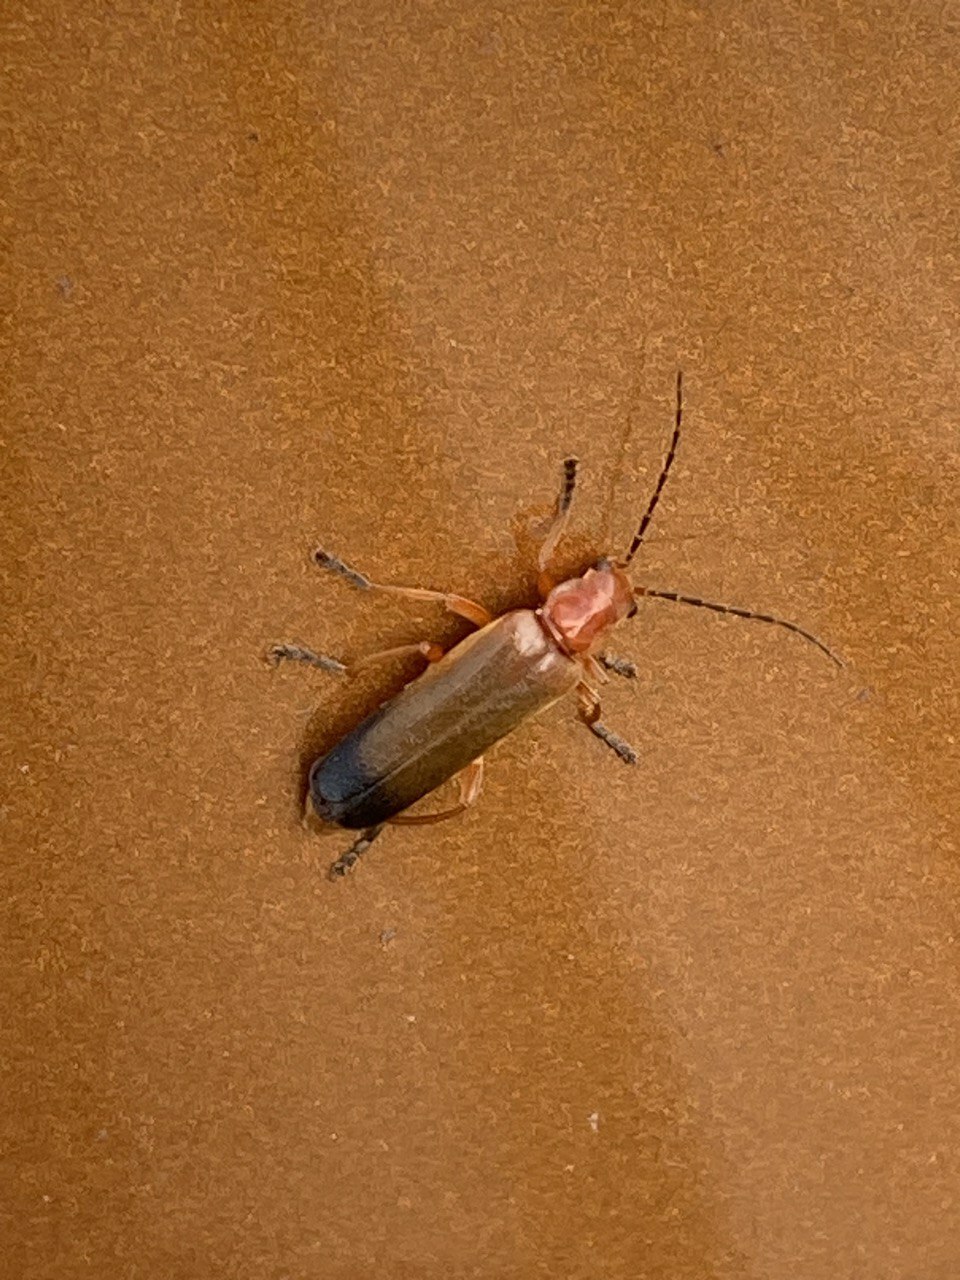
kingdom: Animalia
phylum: Arthropoda
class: Insecta
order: Coleoptera
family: Cantharidae
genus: Ancistronycha
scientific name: Ancistronycha erichsonii
